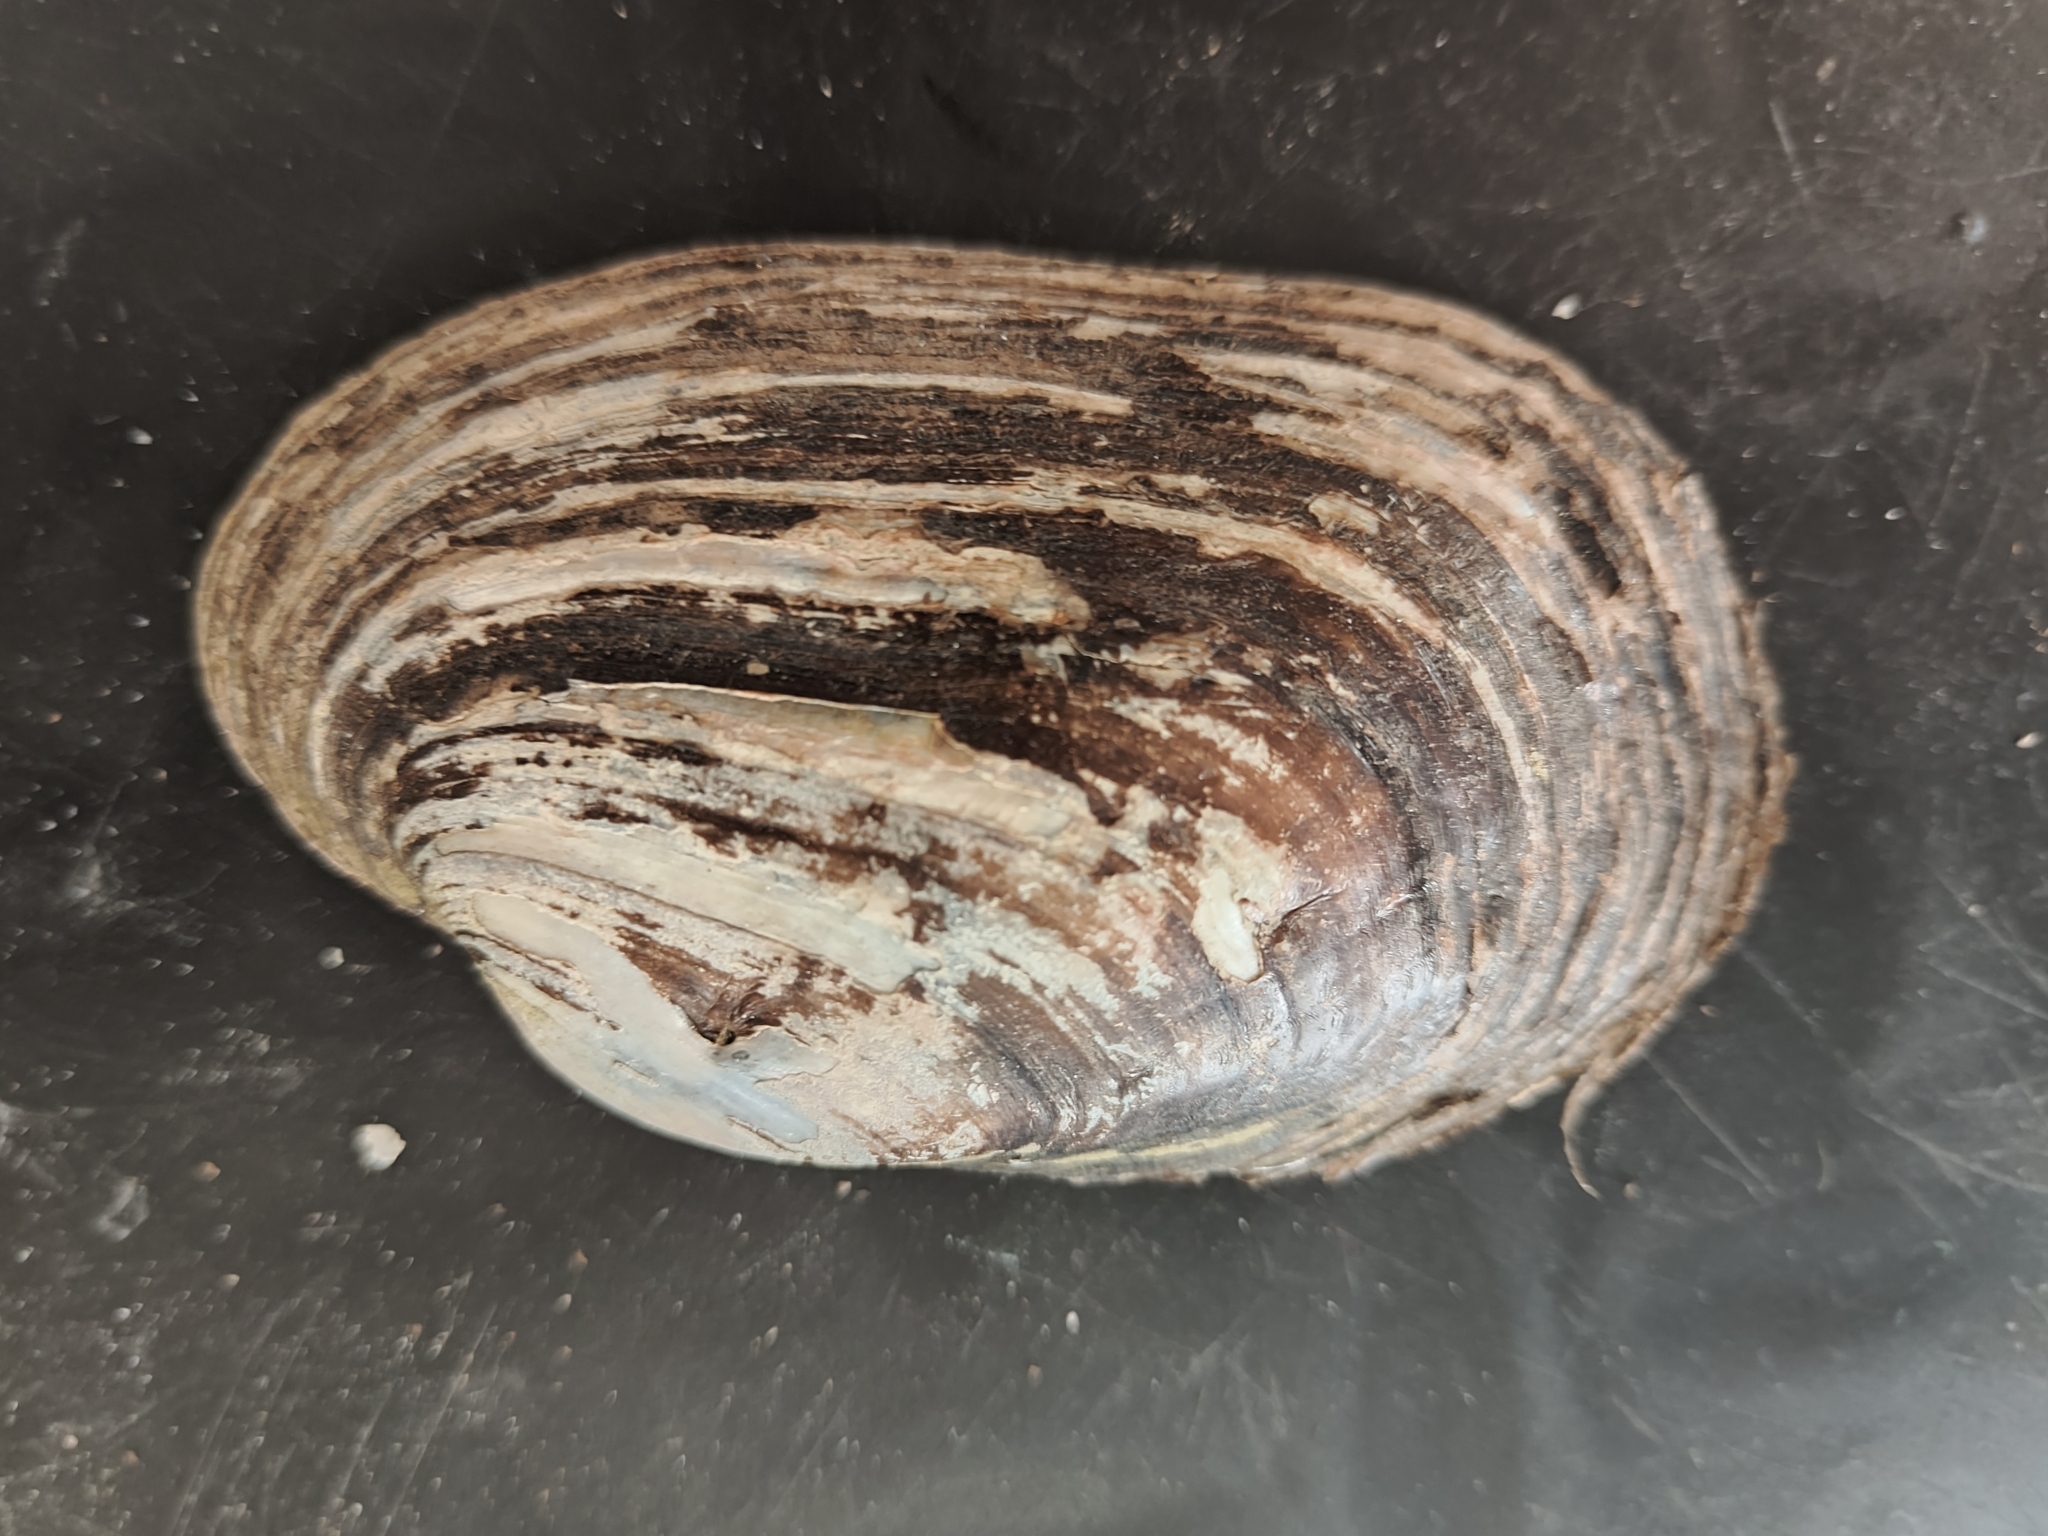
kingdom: Animalia
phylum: Mollusca
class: Bivalvia
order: Unionida
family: Unionidae
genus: Lampsilis
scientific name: Lampsilis siliquoidea
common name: Fatmucket
